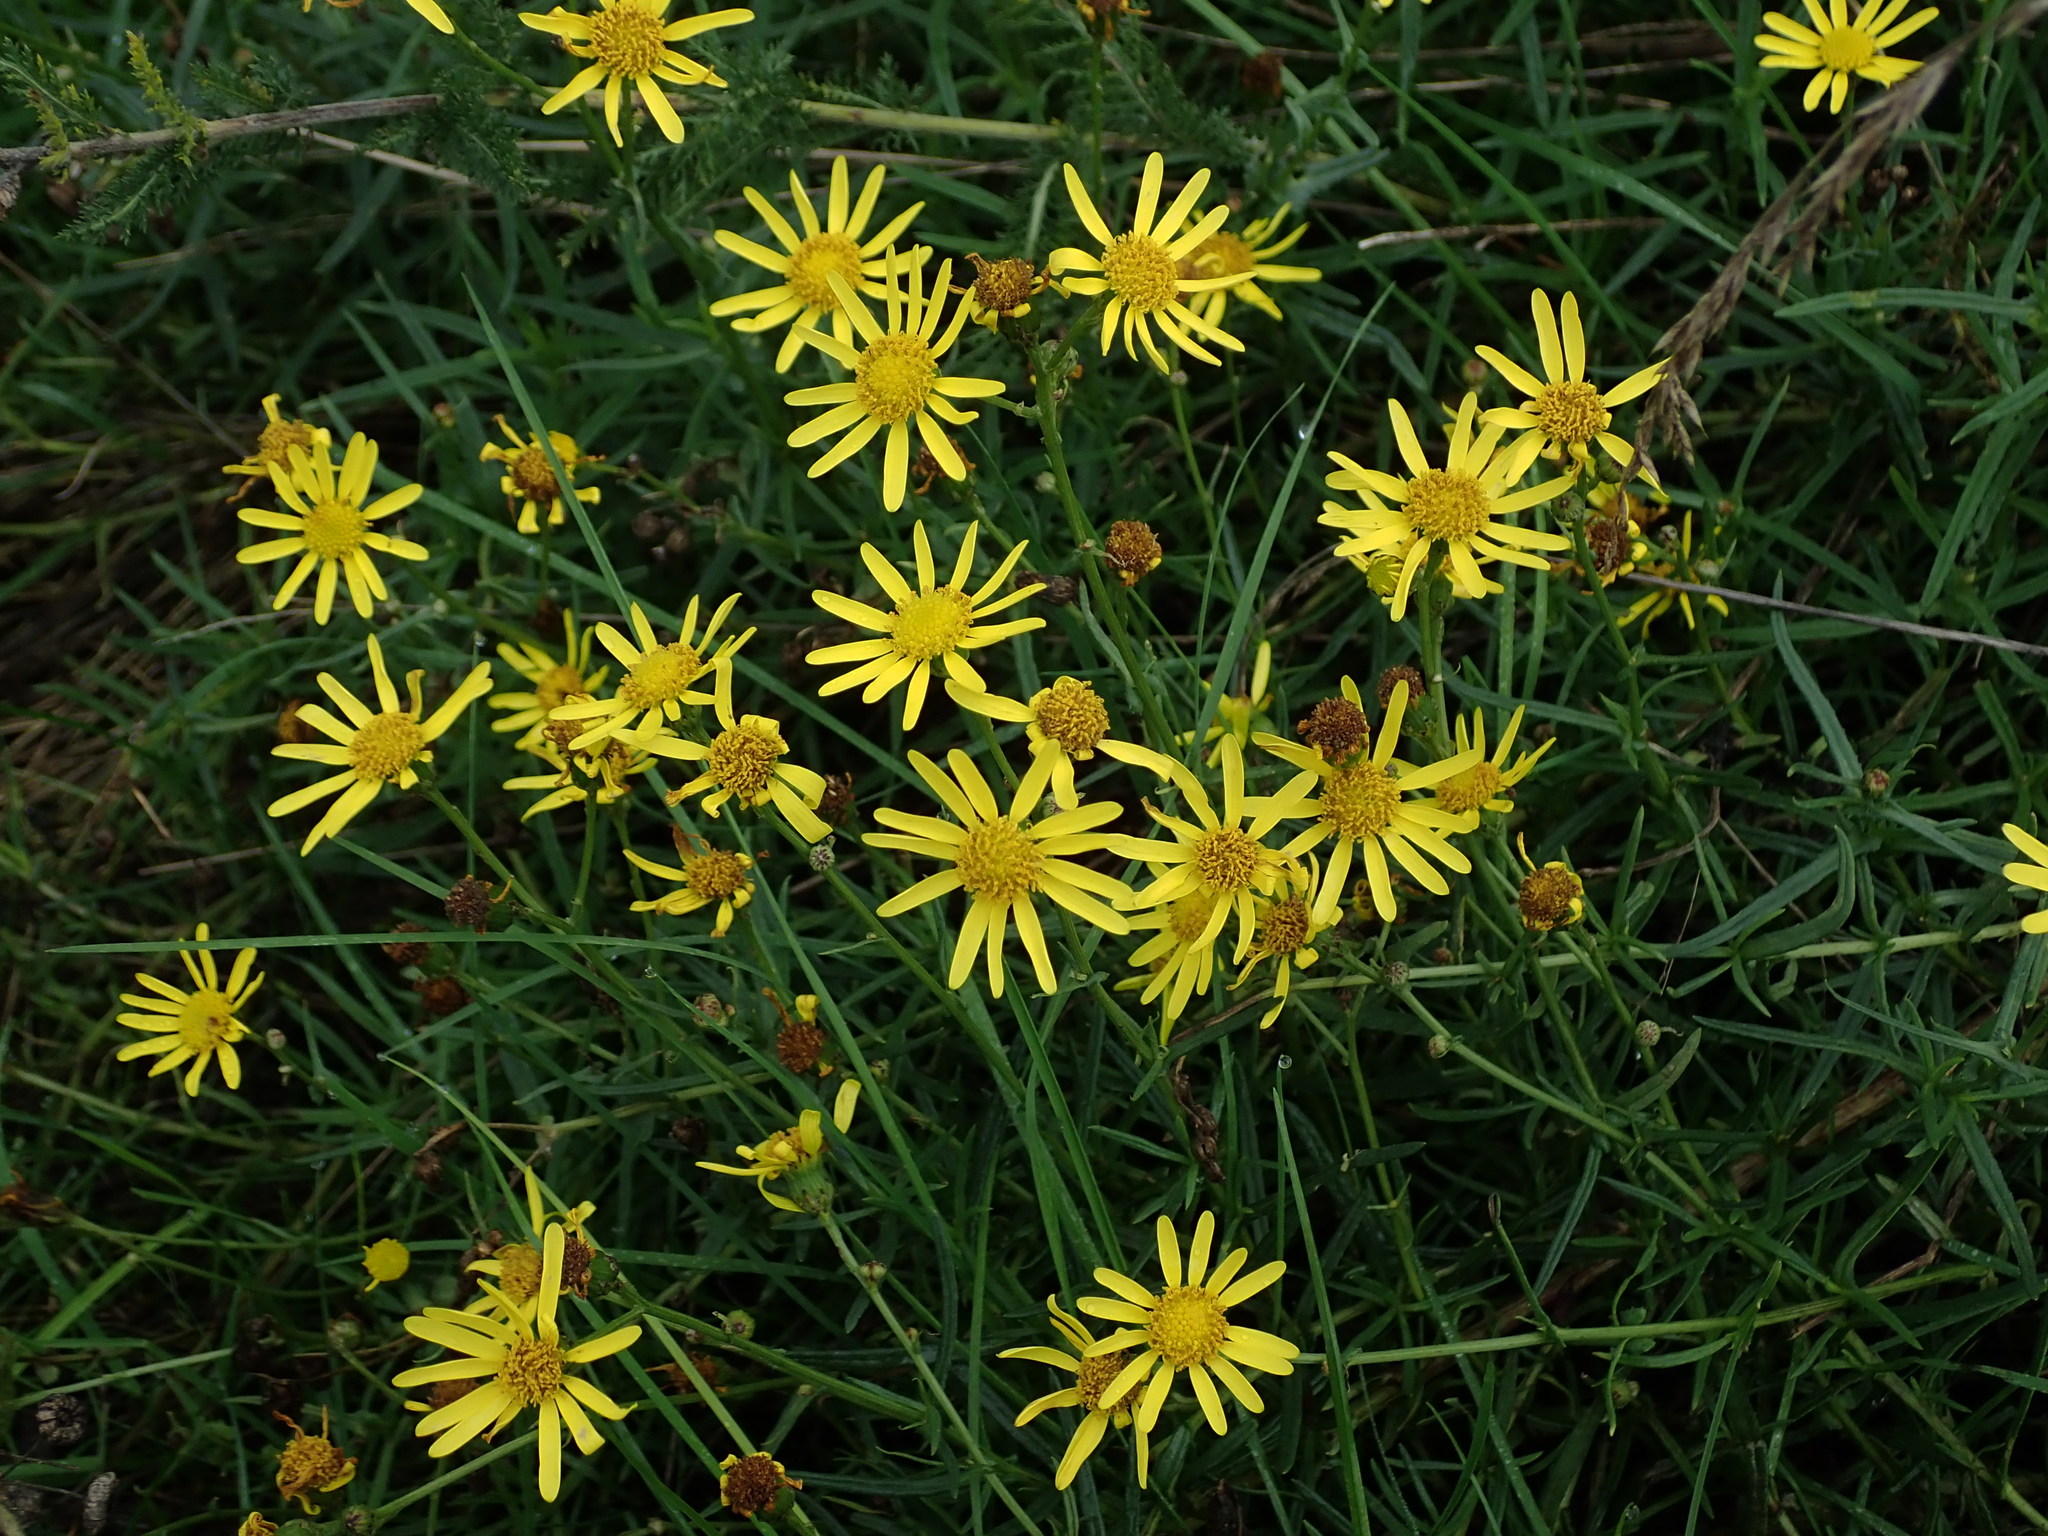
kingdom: Plantae
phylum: Tracheophyta
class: Magnoliopsida
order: Asterales
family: Asteraceae
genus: Senecio
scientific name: Senecio inaequidens
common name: Narrow-leaved ragwort
